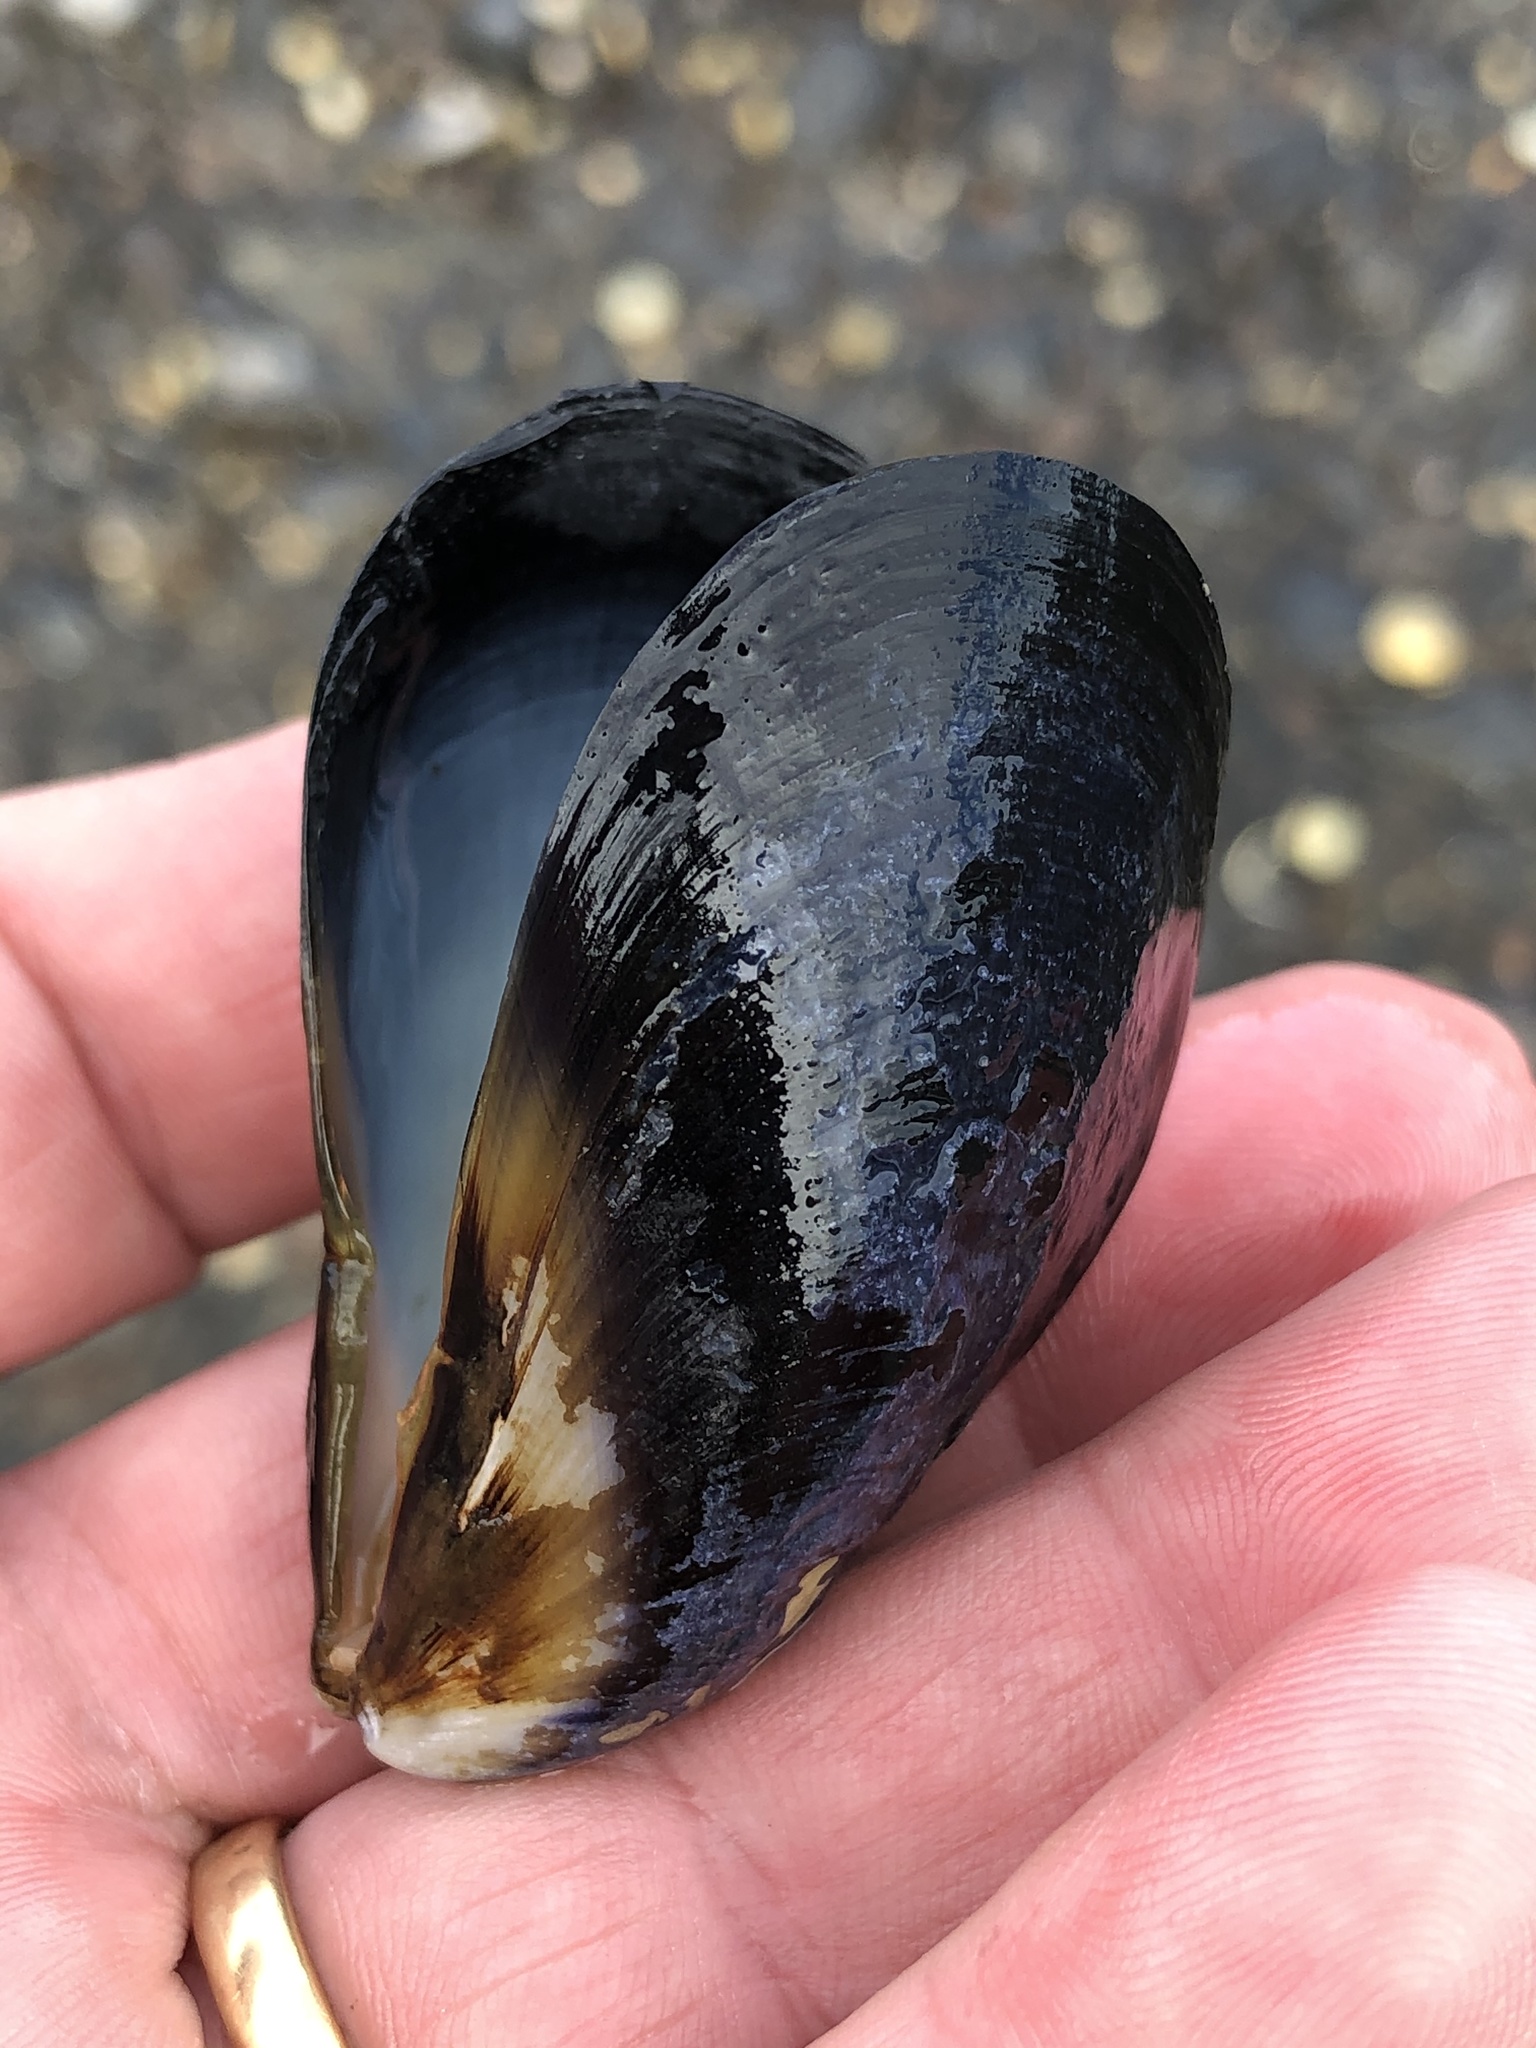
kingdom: Animalia
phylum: Mollusca
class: Bivalvia
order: Mytilida
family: Mytilidae
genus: Mytilus
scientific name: Mytilus planulatus
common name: Australian mussel
